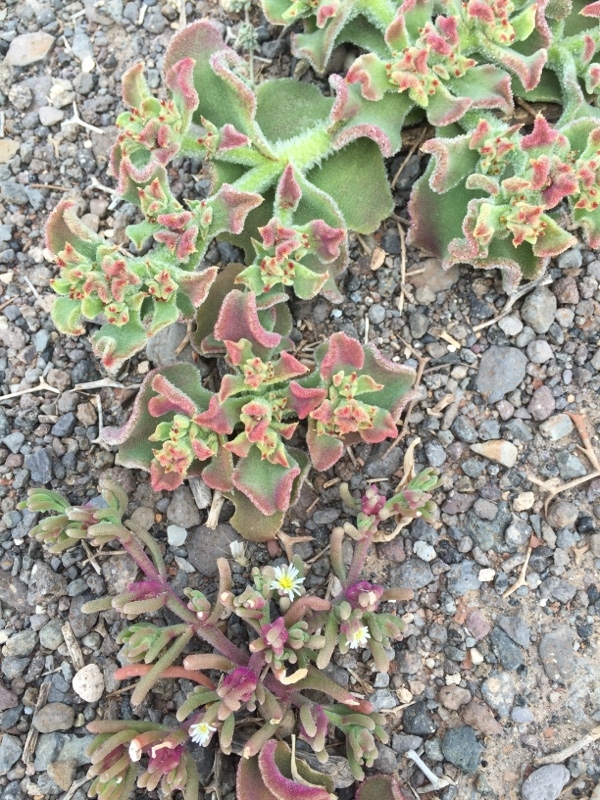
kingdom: Plantae
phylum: Tracheophyta
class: Magnoliopsida
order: Caryophyllales
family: Aizoaceae
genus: Mesembryanthemum
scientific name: Mesembryanthemum nodiflorum
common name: Slenderleaf iceplant
